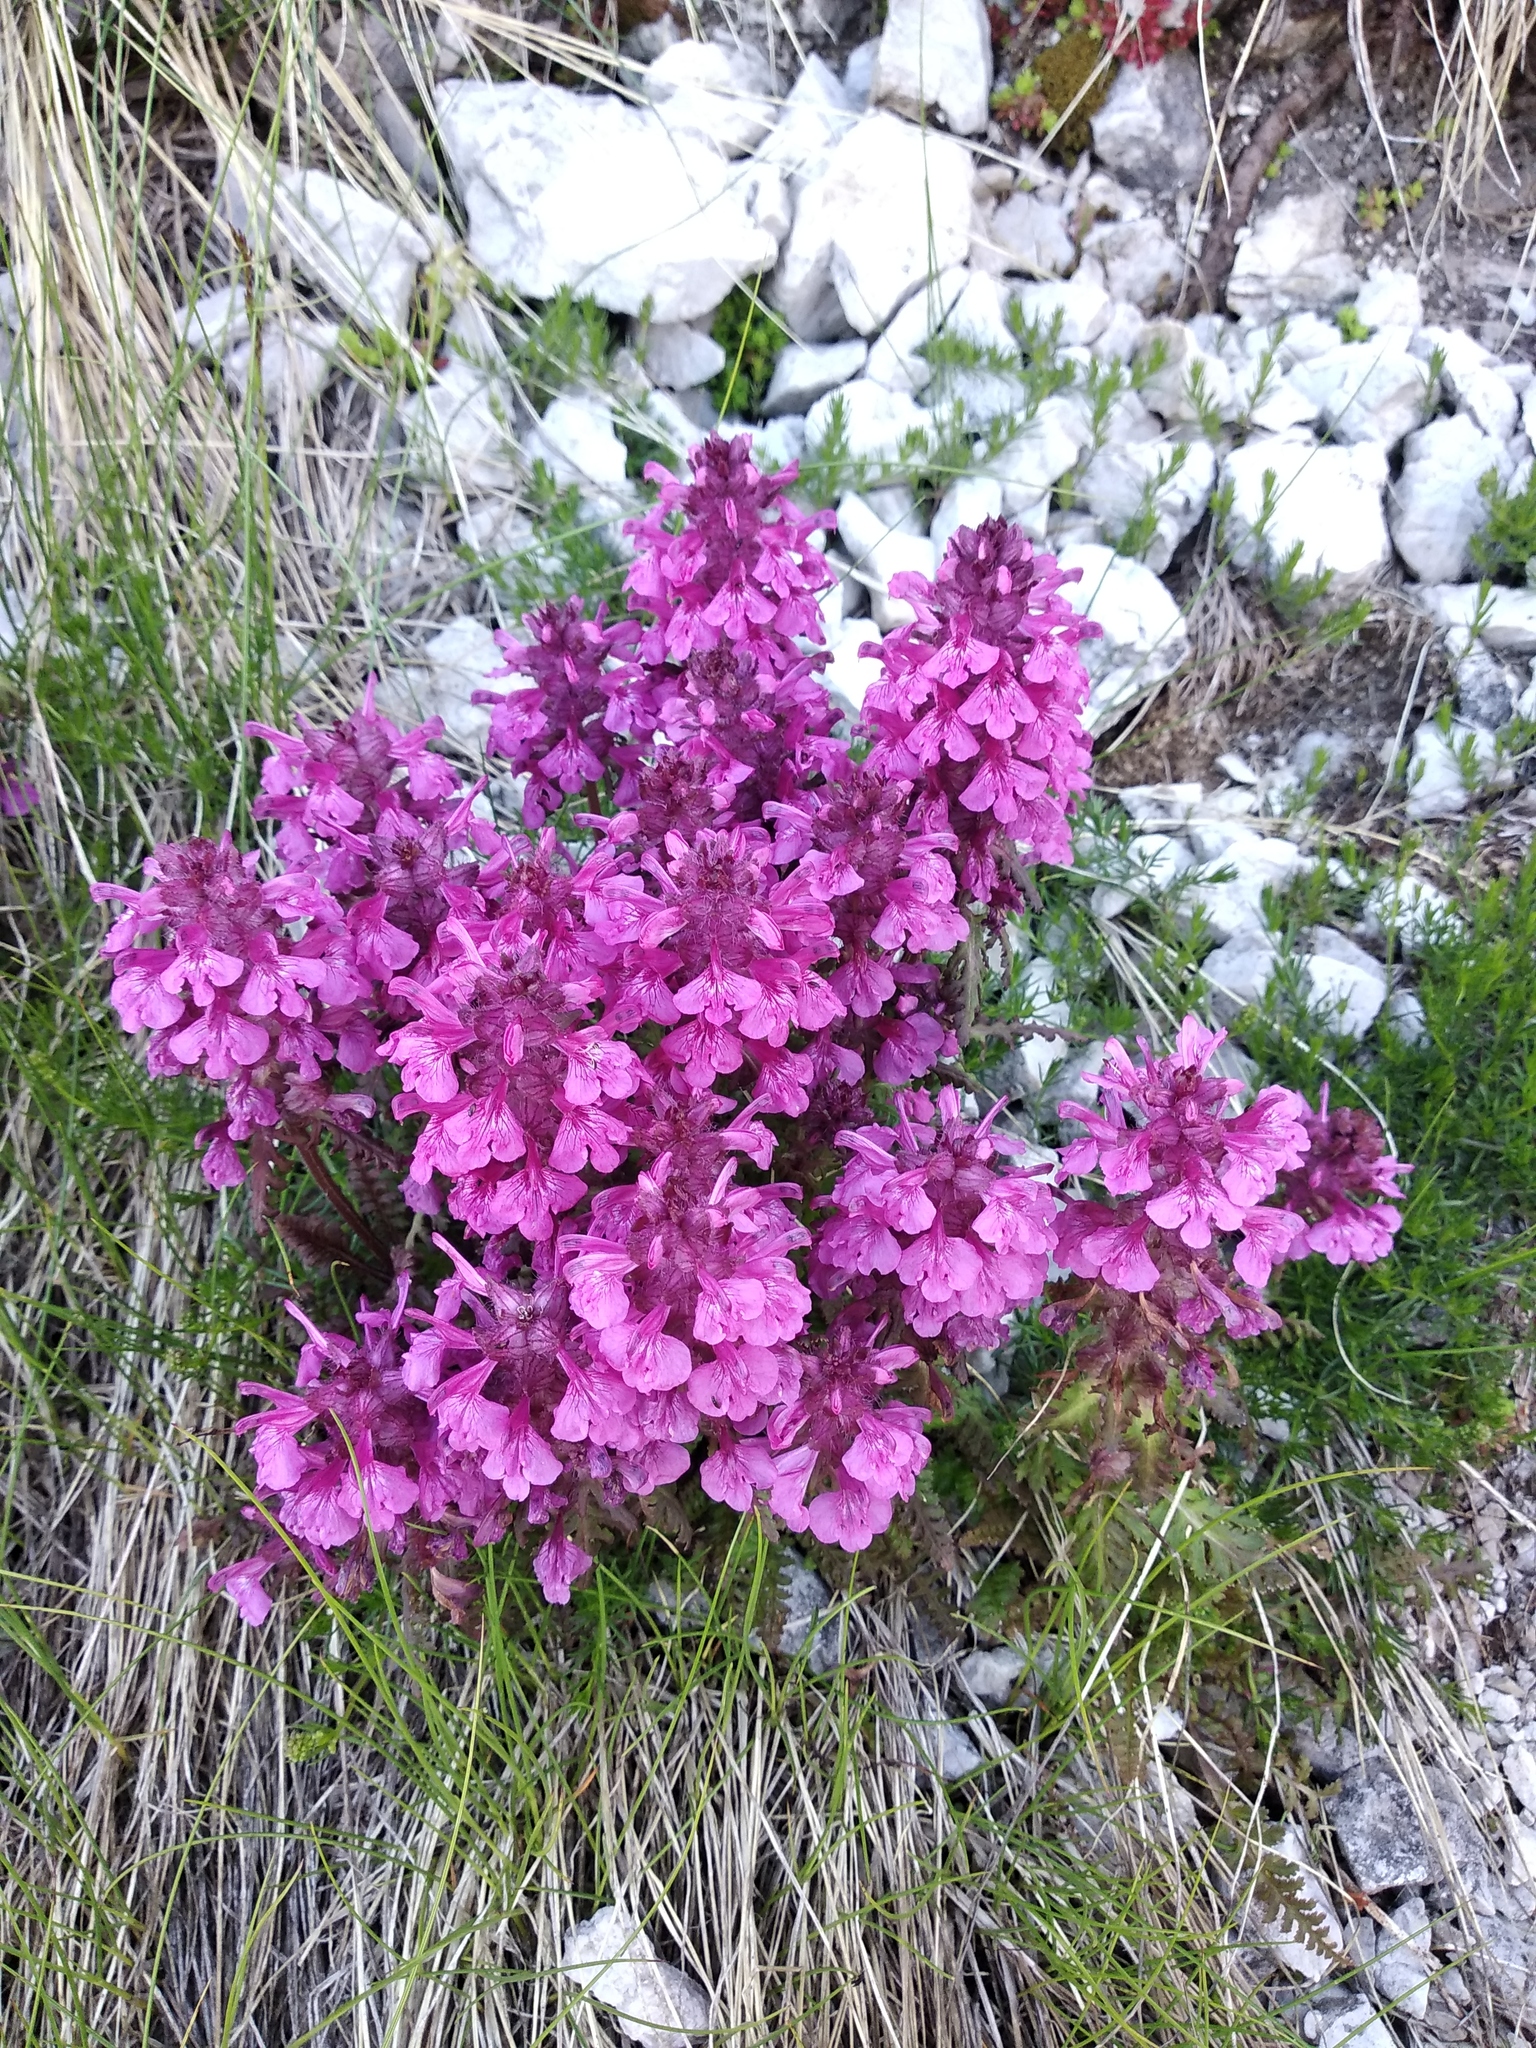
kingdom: Plantae
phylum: Tracheophyta
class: Magnoliopsida
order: Lamiales
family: Orobanchaceae
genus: Pedicularis
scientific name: Pedicularis verticillata
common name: Whorled lousewort
